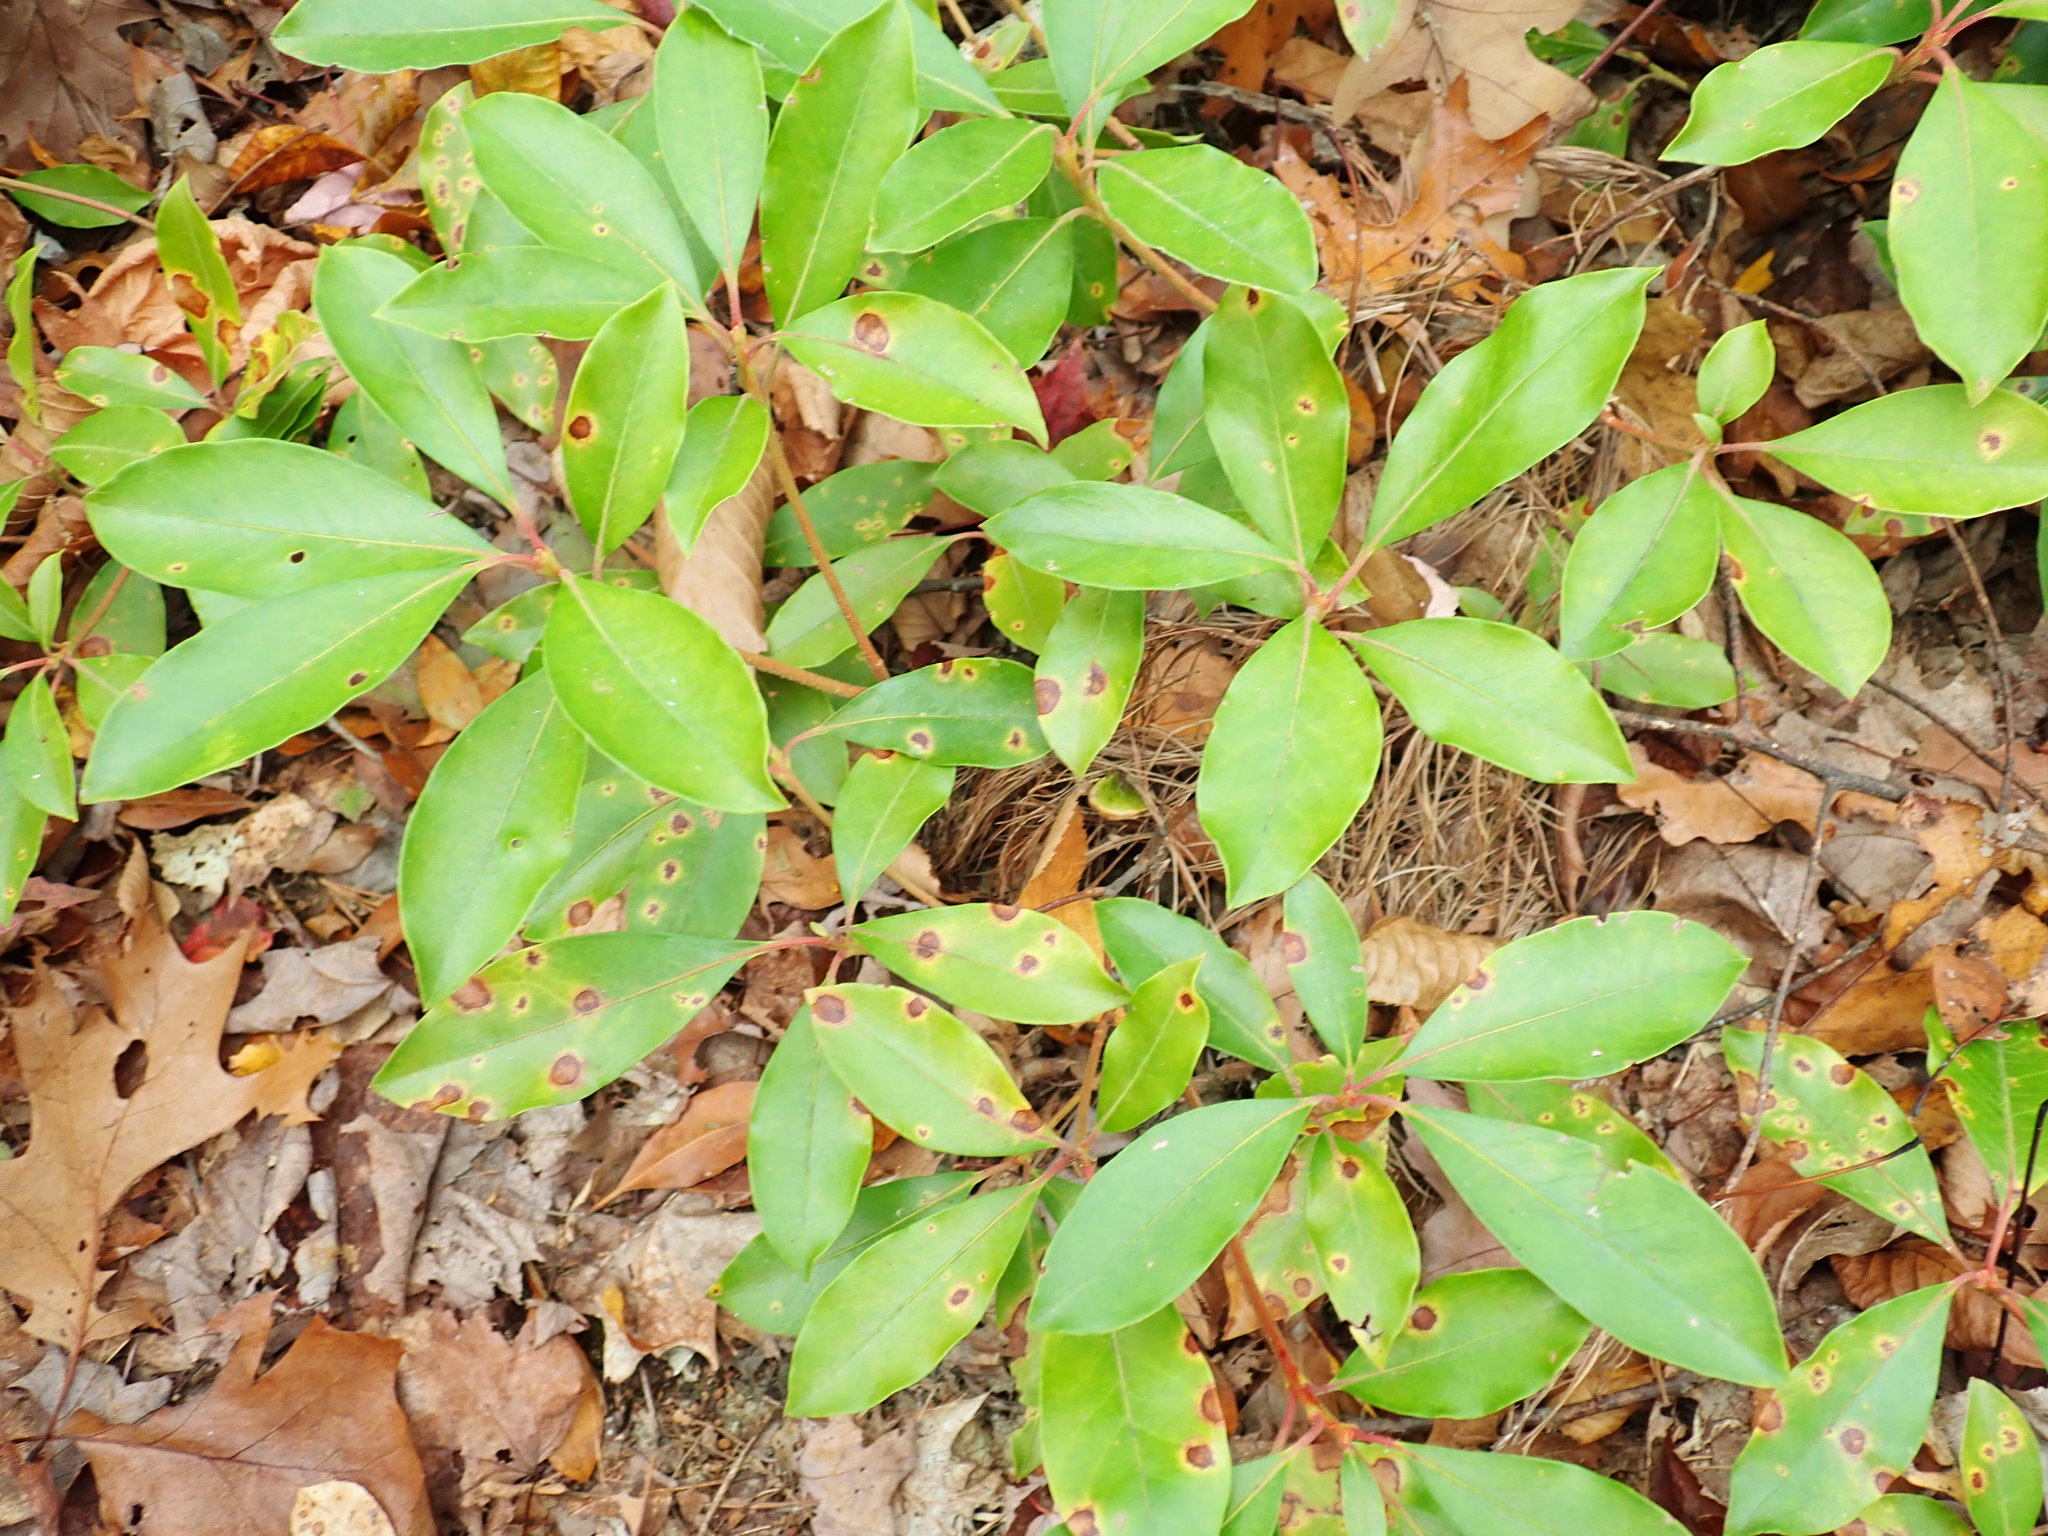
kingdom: Plantae
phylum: Tracheophyta
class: Magnoliopsida
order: Ericales
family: Ericaceae
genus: Kalmia
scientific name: Kalmia latifolia
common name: Mountain-laurel
